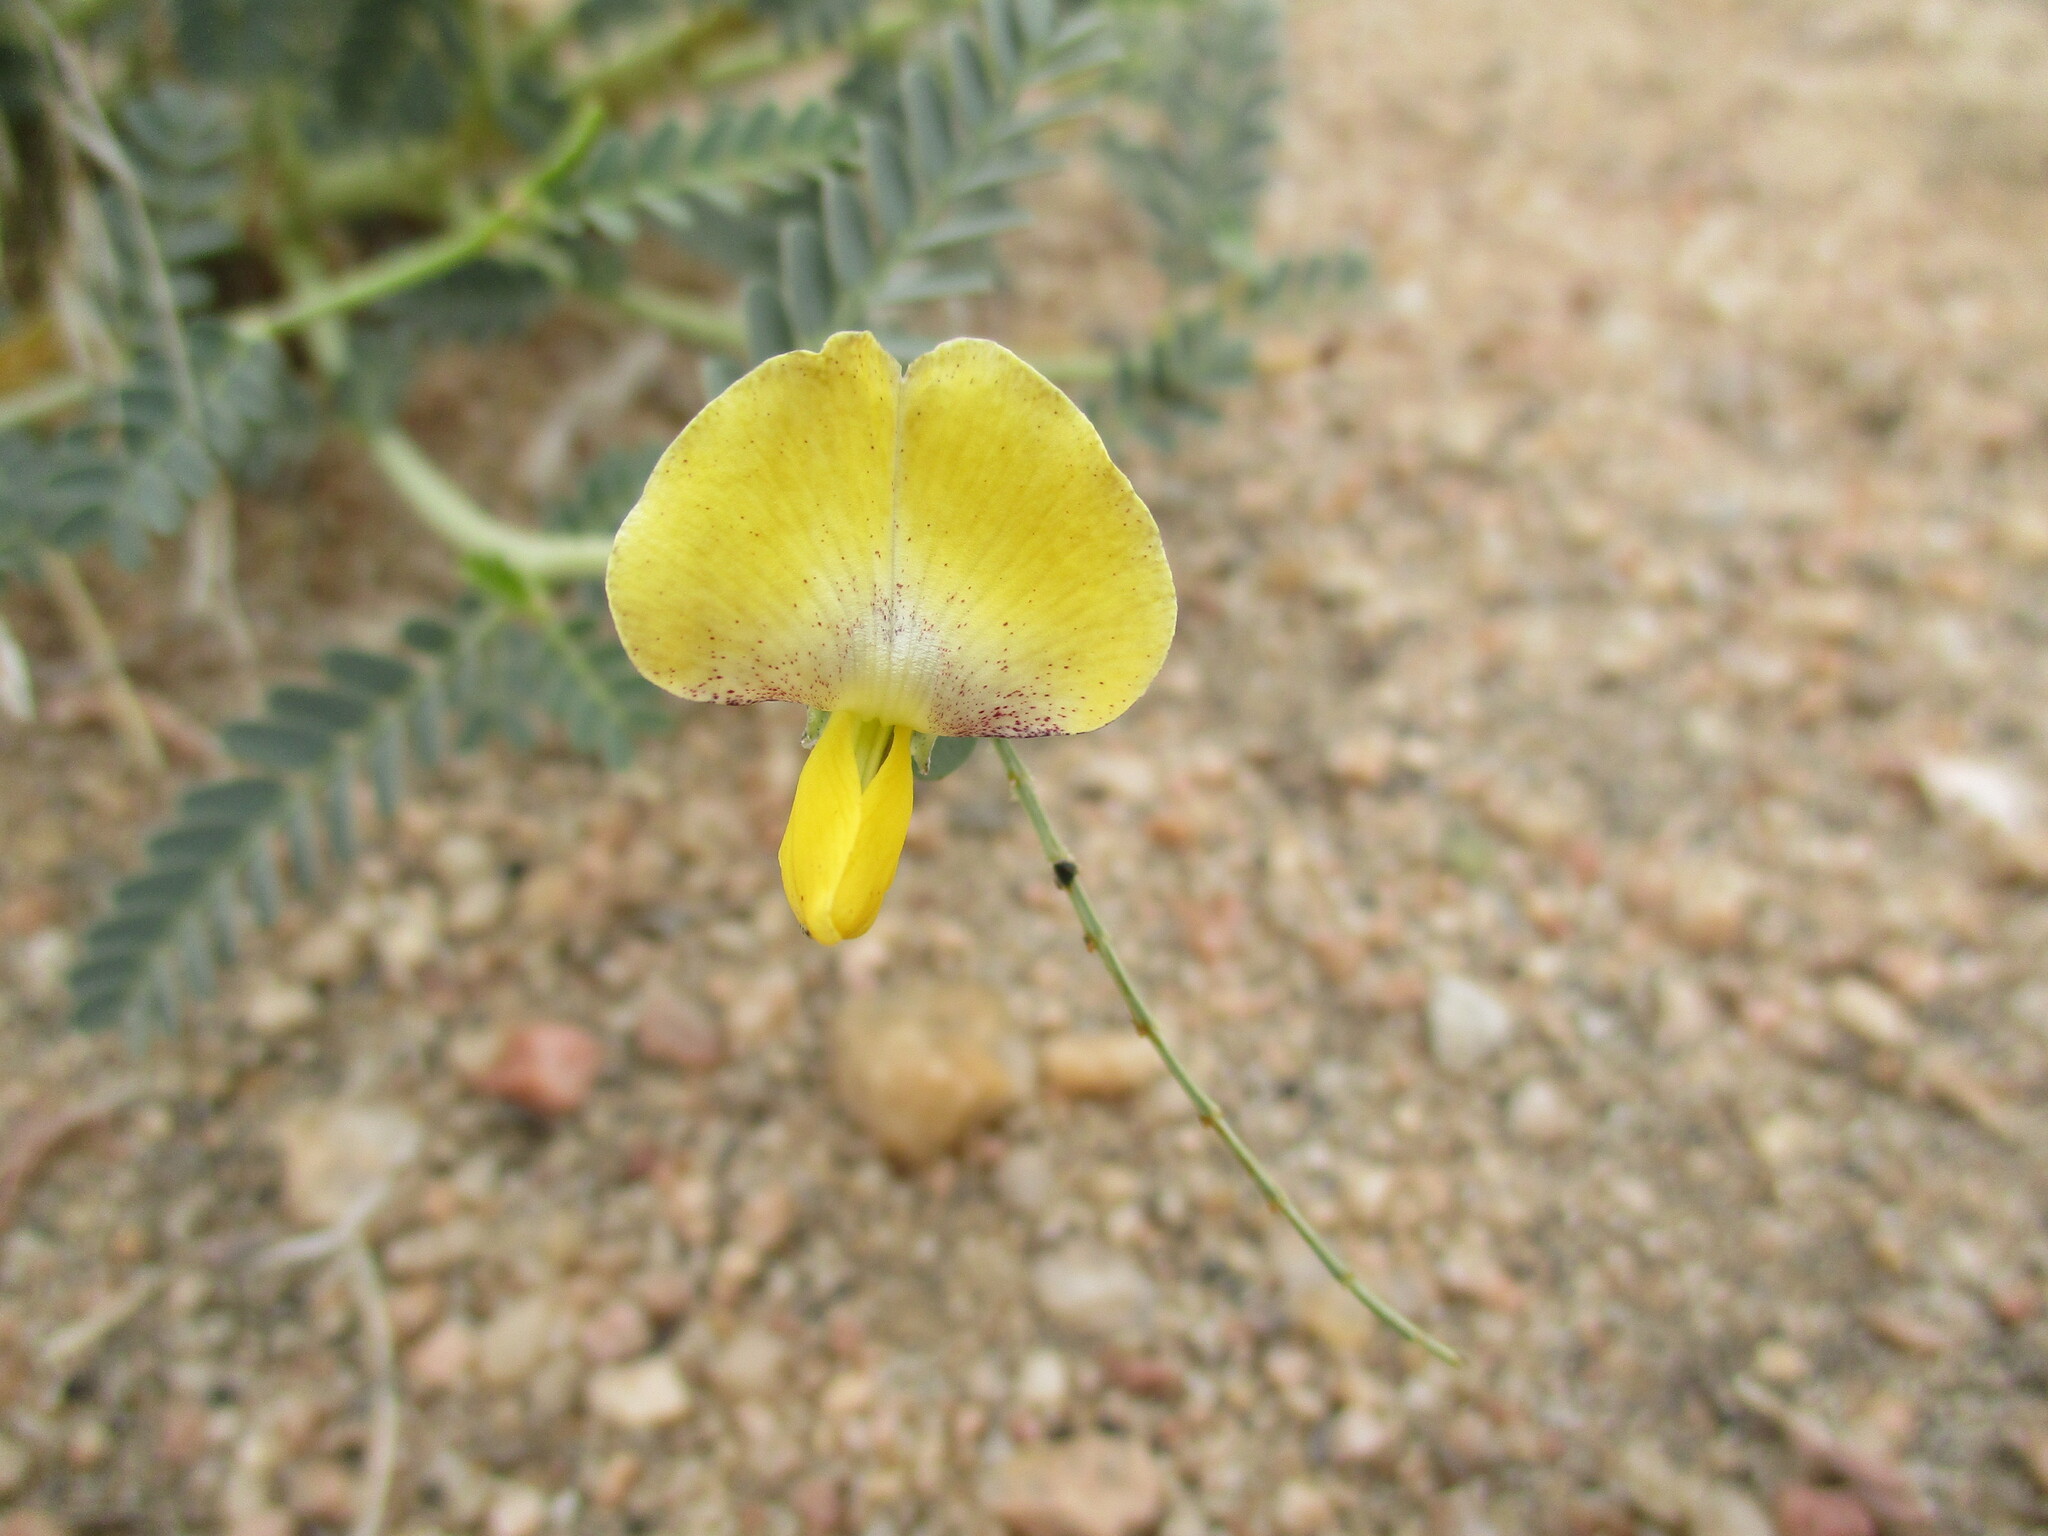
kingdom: Plantae
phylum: Tracheophyta
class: Magnoliopsida
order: Fabales
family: Fabaceae
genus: Sesbania
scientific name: Sesbania pachycarpa
